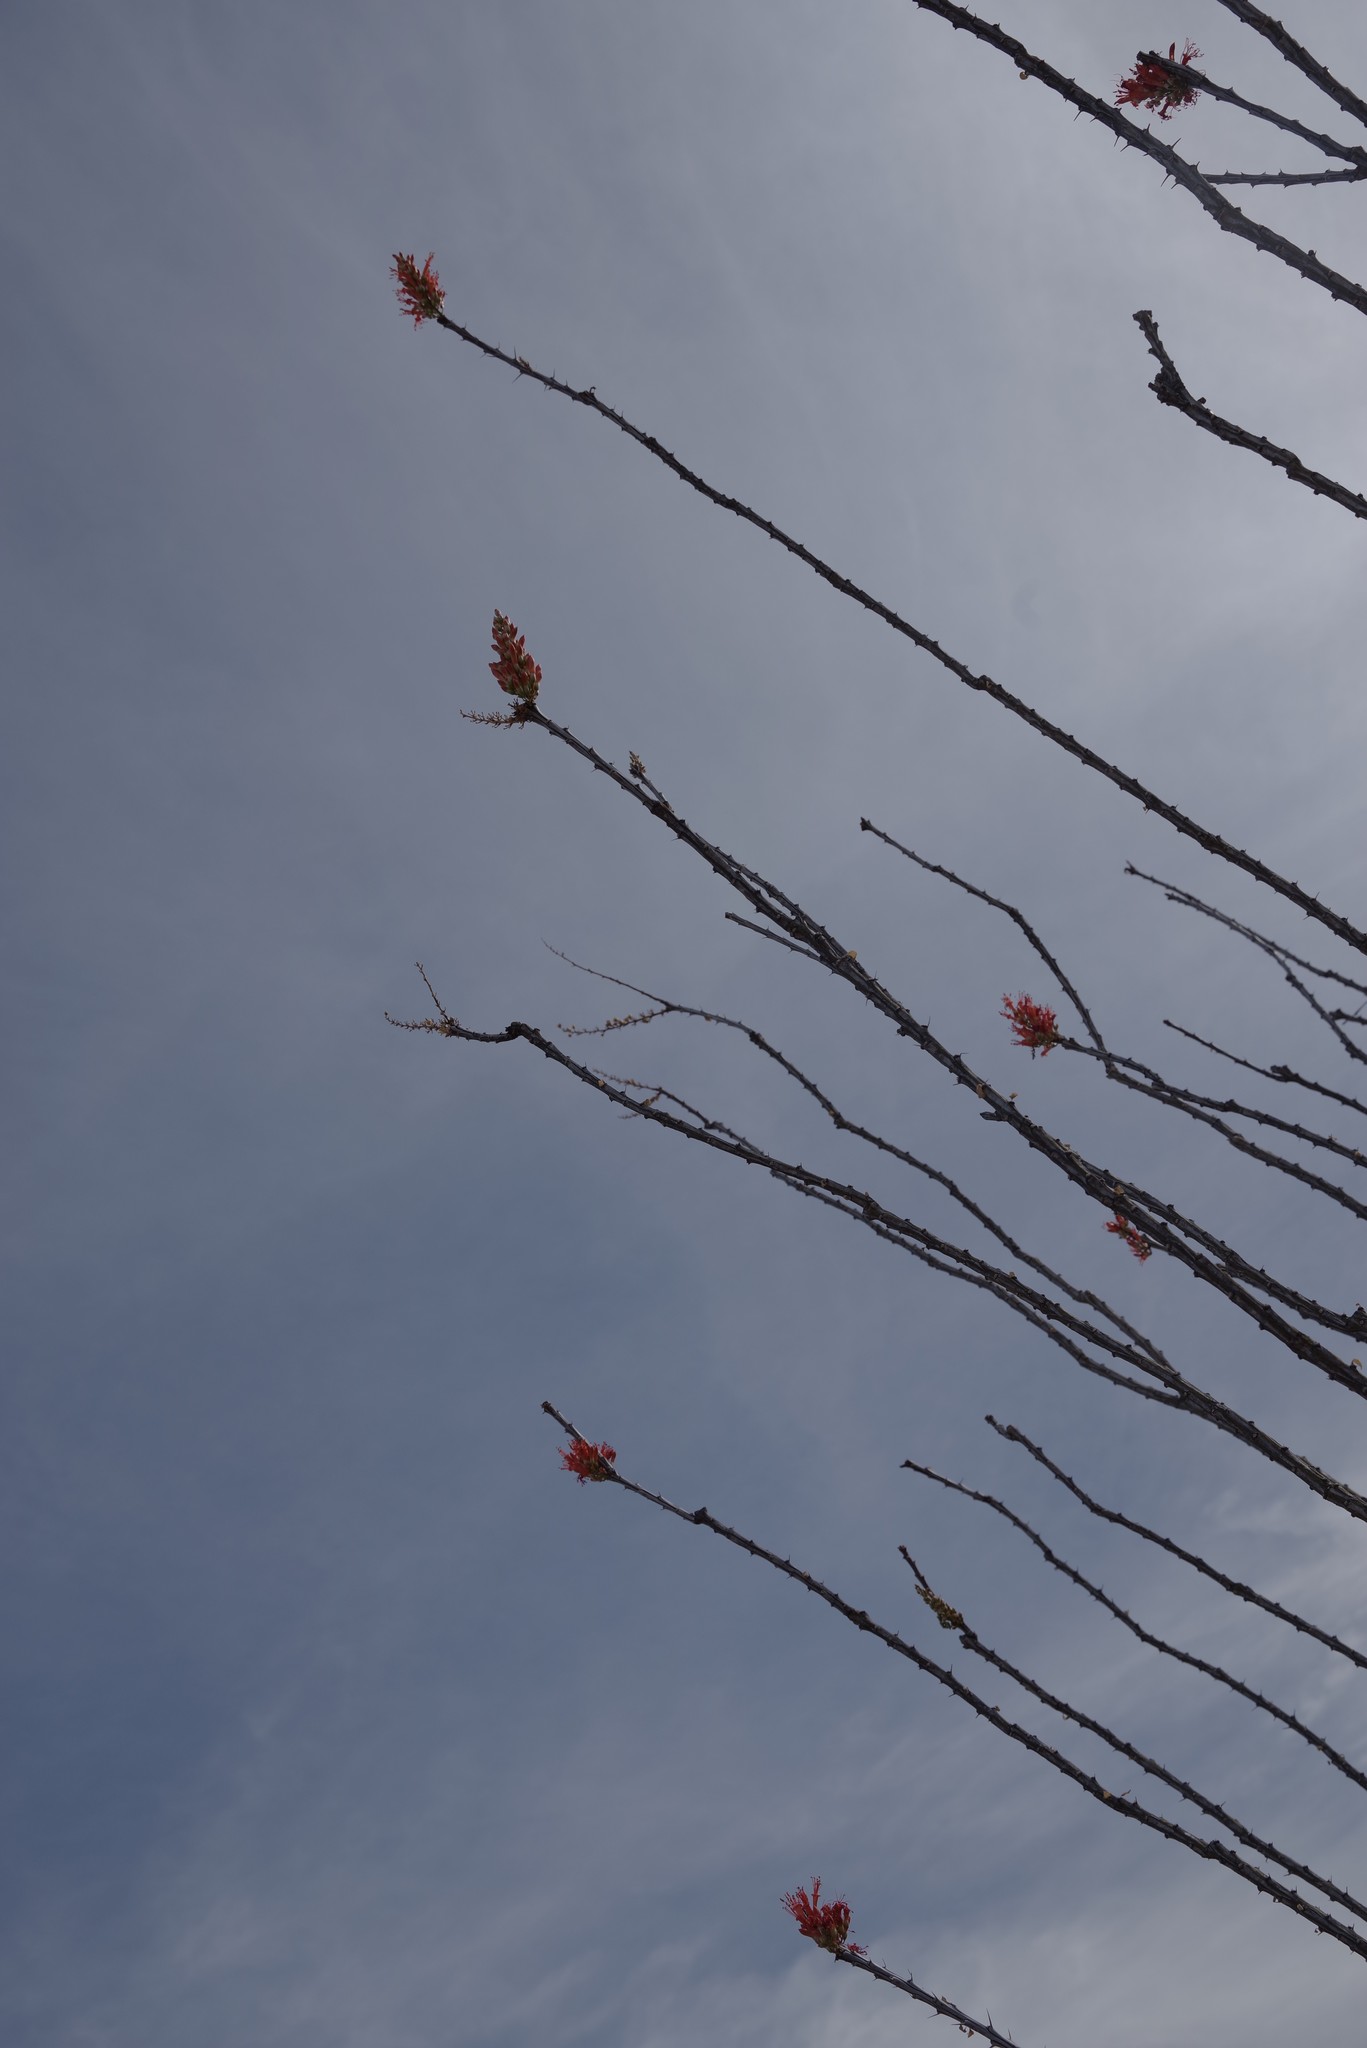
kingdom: Plantae
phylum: Tracheophyta
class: Magnoliopsida
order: Ericales
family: Fouquieriaceae
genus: Fouquieria
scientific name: Fouquieria splendens
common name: Vine-cactus
